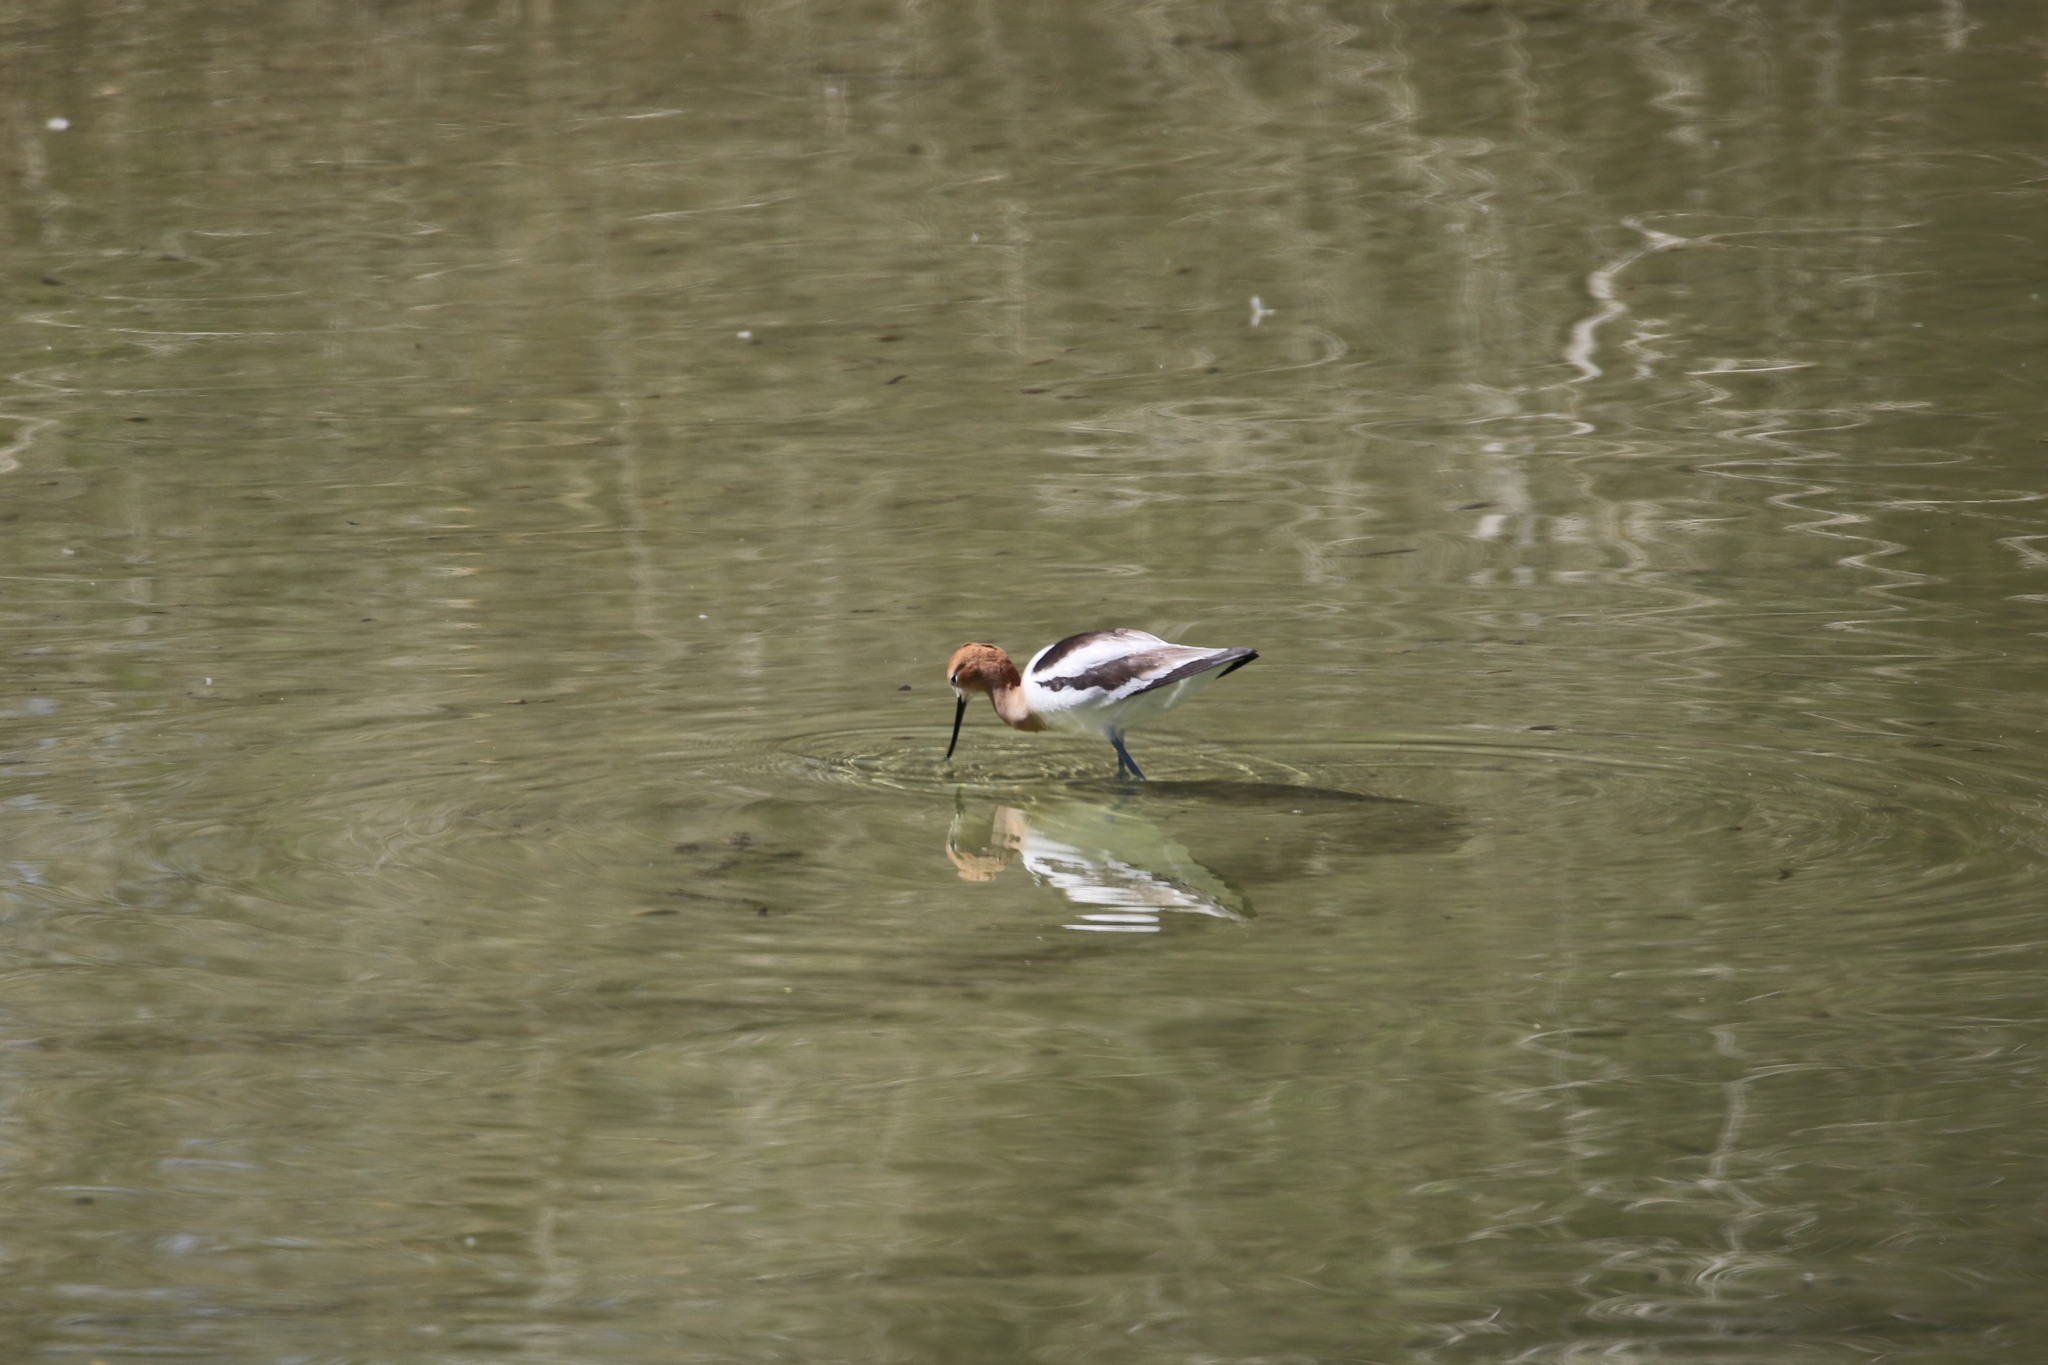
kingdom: Animalia
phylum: Chordata
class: Aves
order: Charadriiformes
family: Recurvirostridae
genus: Recurvirostra
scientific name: Recurvirostra americana
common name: American avocet
